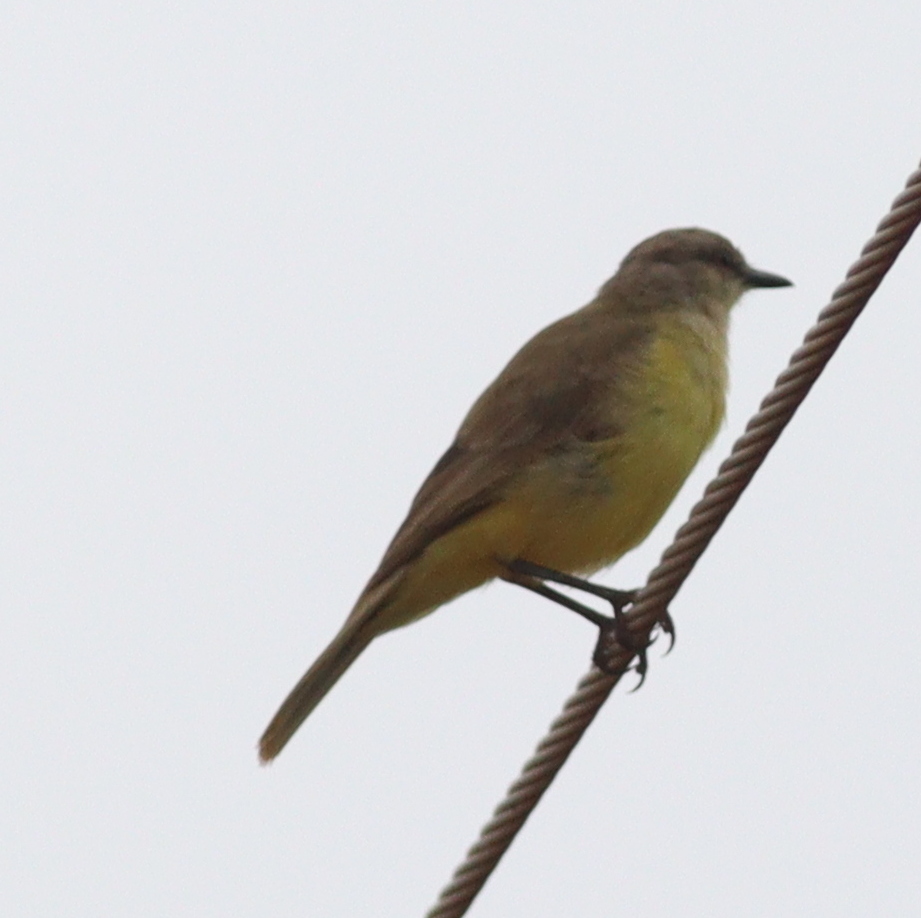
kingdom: Animalia
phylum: Chordata
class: Aves
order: Passeriformes
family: Tyrannidae
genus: Machetornis
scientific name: Machetornis rixosa
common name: Cattle tyrant
